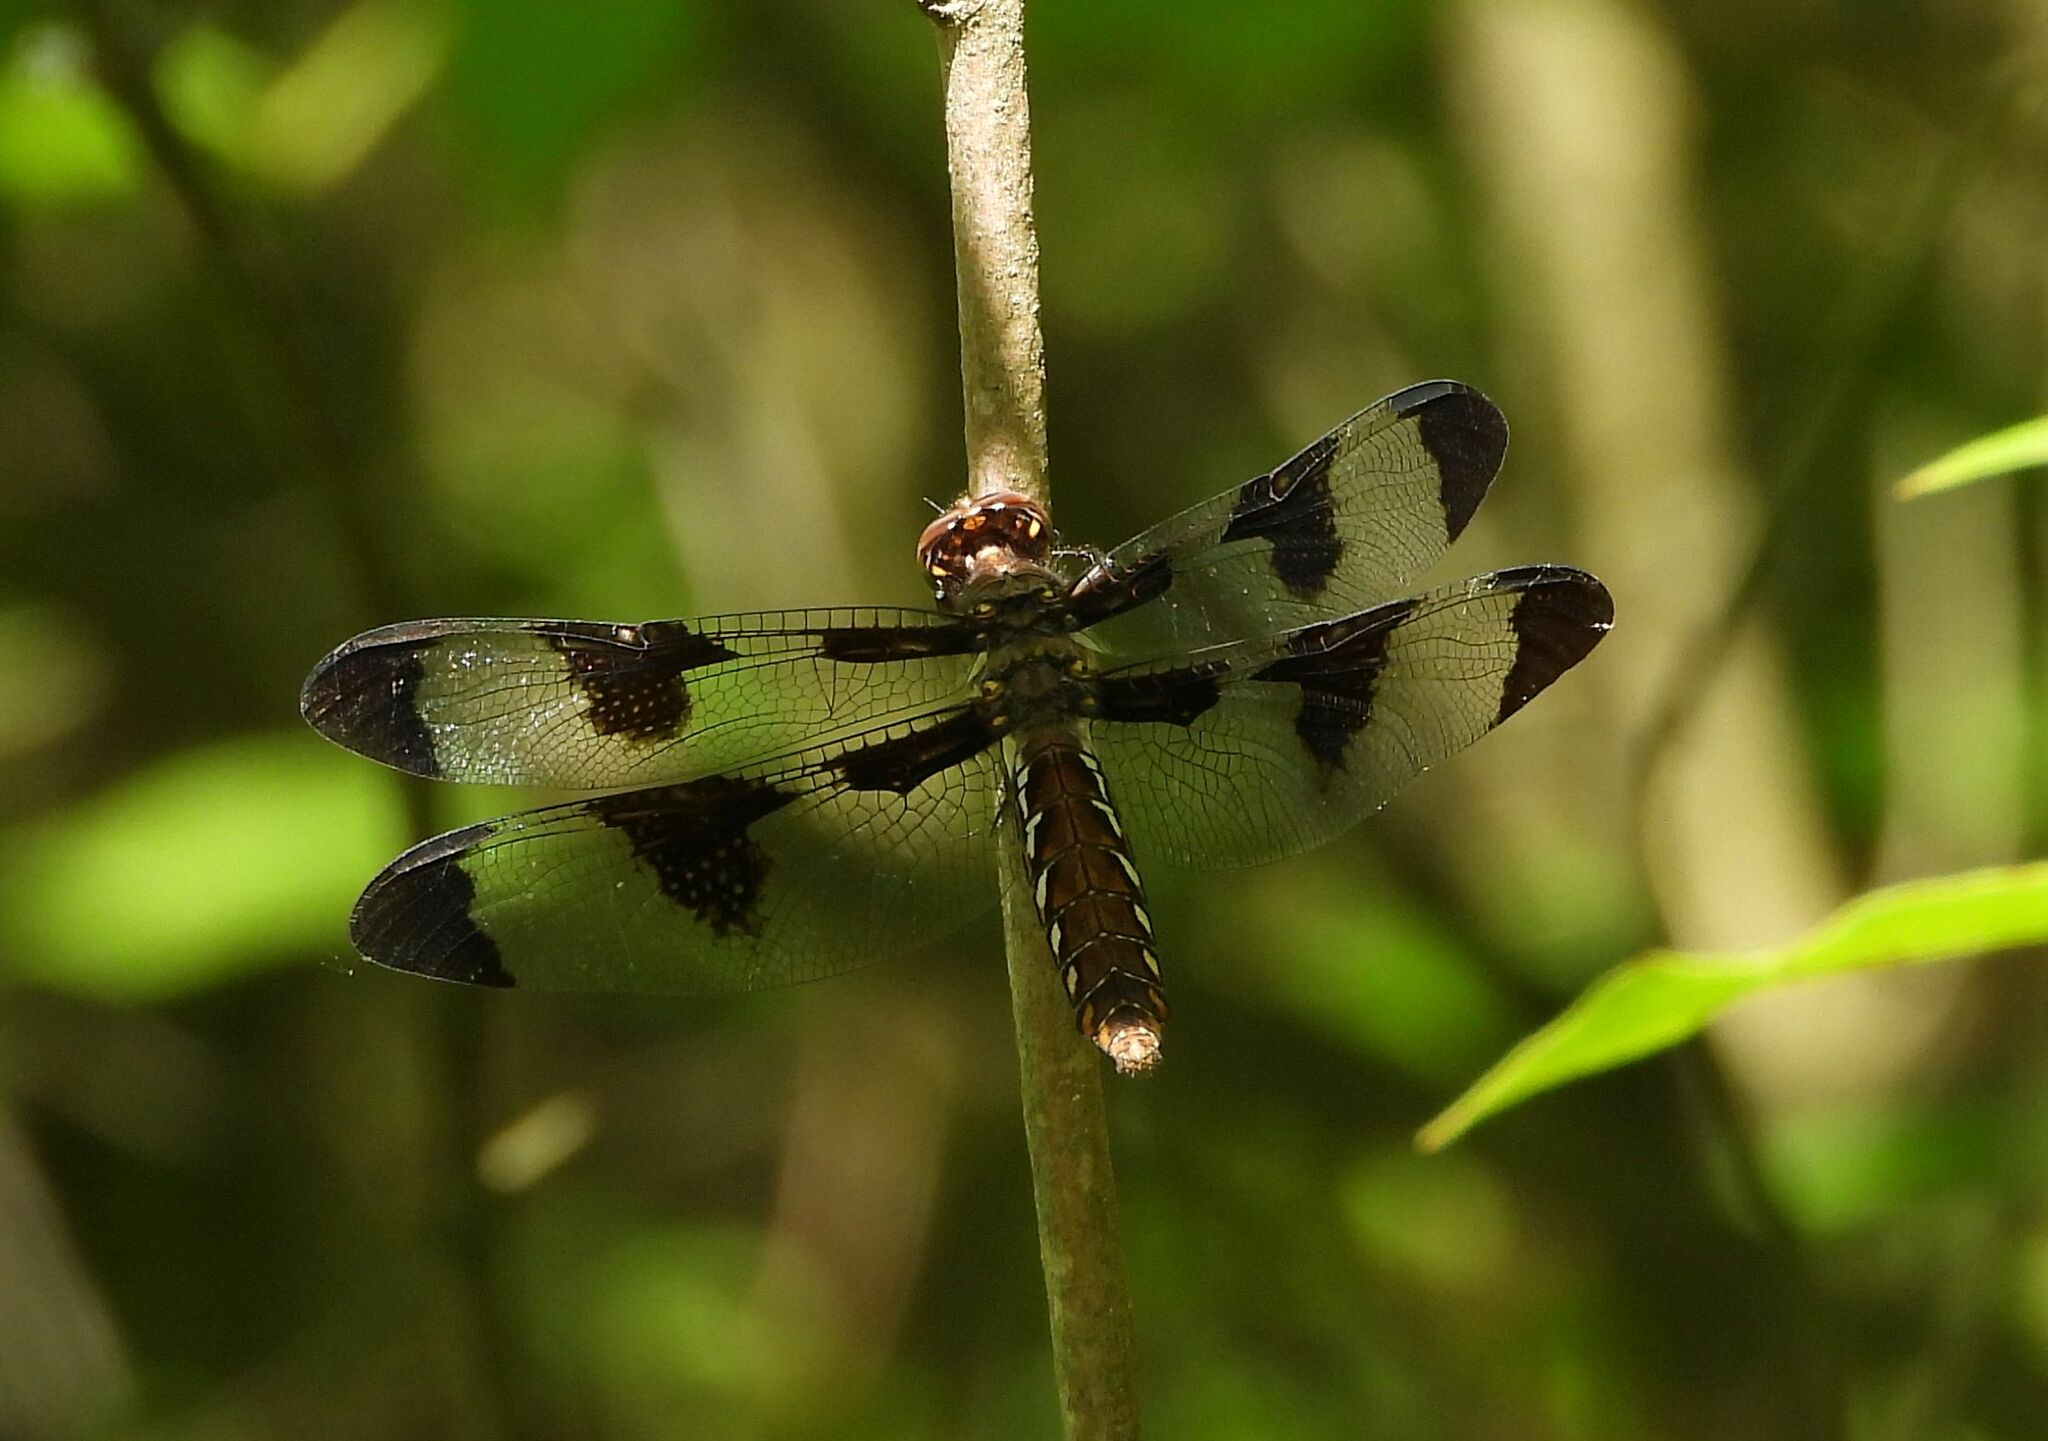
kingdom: Animalia
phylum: Arthropoda
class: Insecta
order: Odonata
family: Libellulidae
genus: Plathemis
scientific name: Plathemis lydia
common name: Common whitetail
